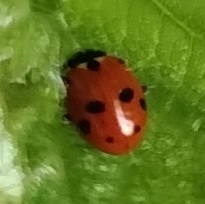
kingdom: Animalia
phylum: Arthropoda
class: Insecta
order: Coleoptera
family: Coccinellidae
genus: Hippodamia
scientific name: Hippodamia variegata
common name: Ladybird beetle
